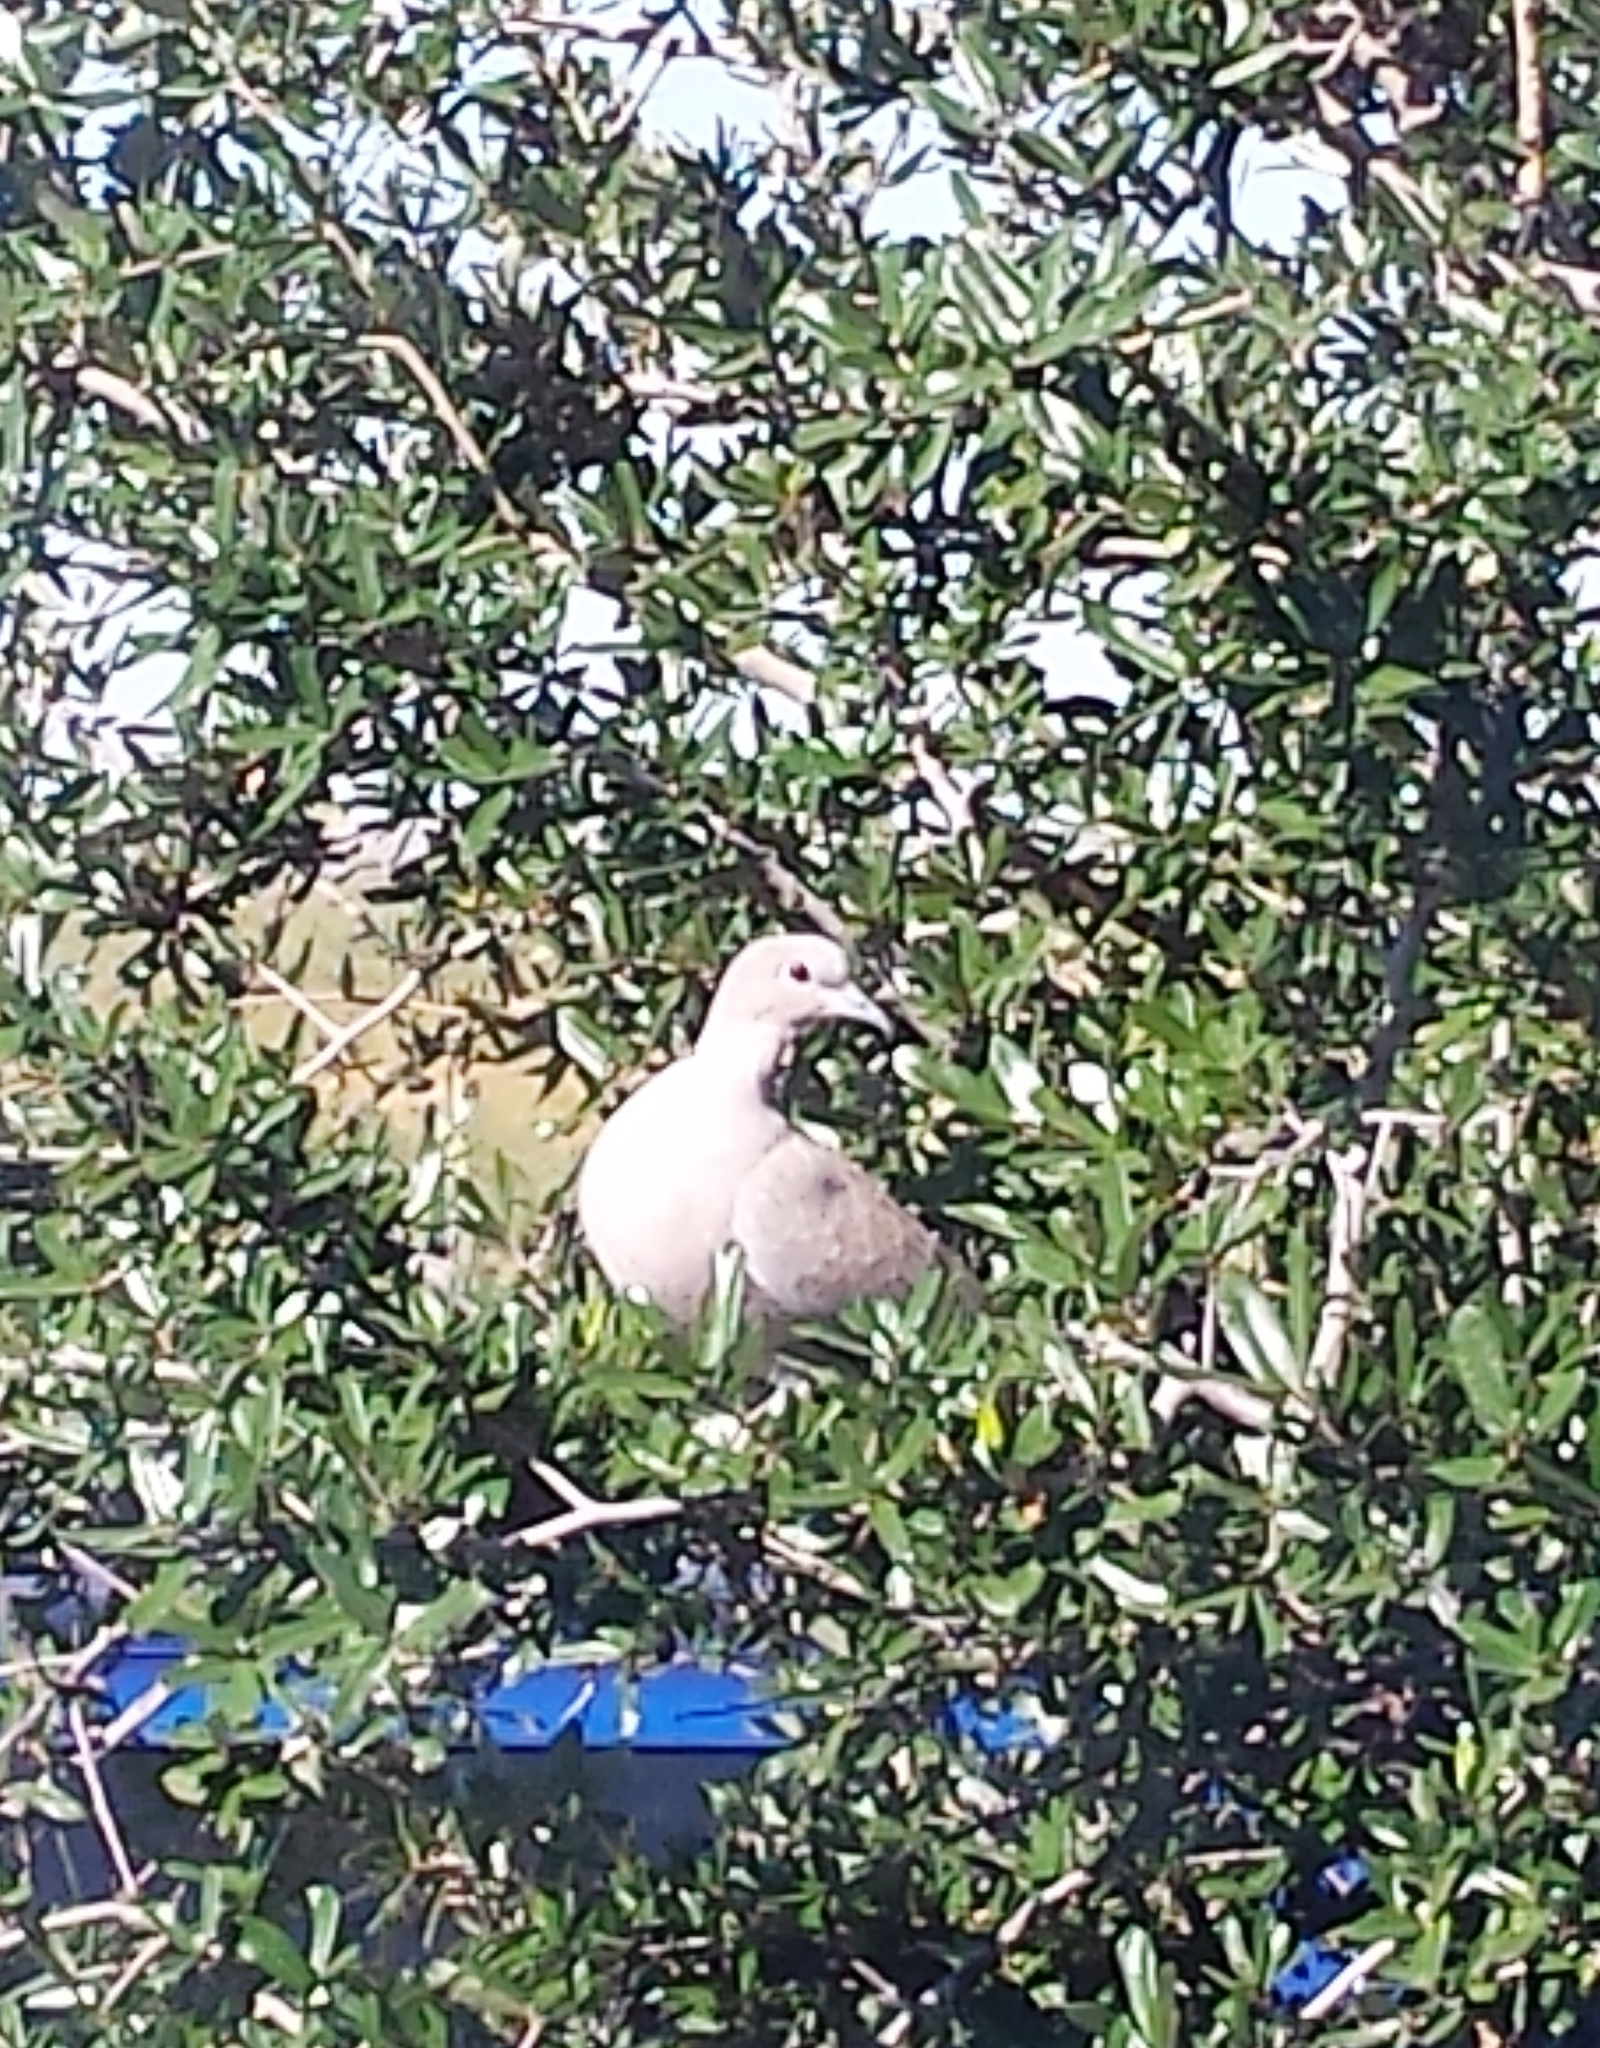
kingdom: Animalia
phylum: Chordata
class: Aves
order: Columbiformes
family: Columbidae
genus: Streptopelia
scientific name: Streptopelia decaocto
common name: Eurasian collared dove
